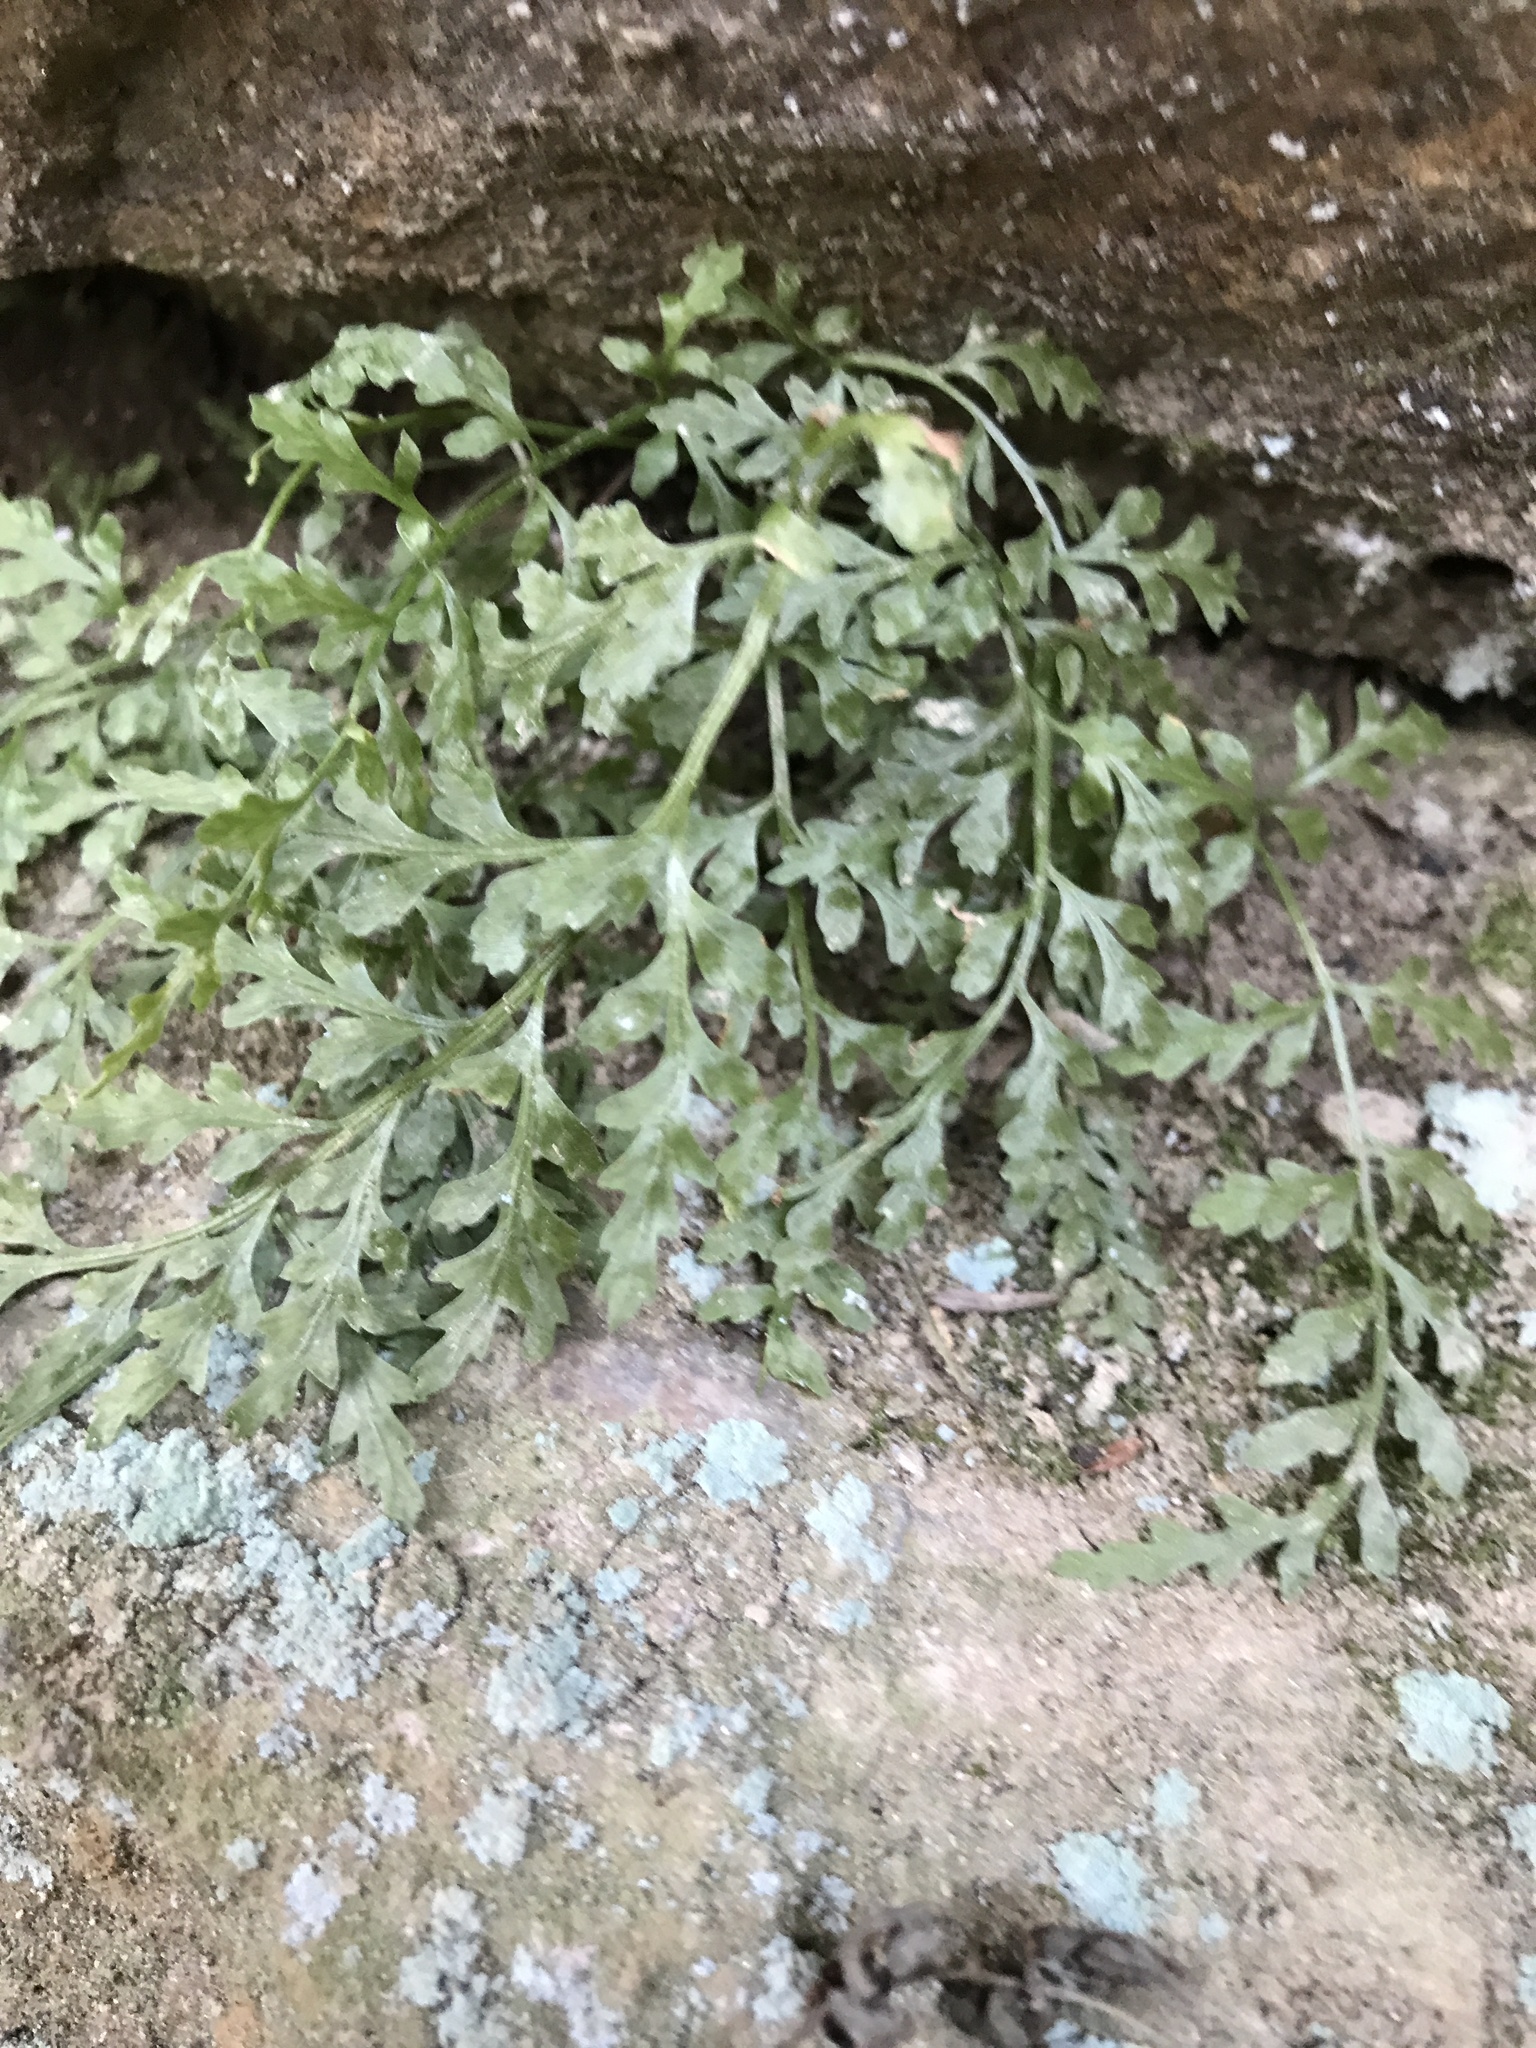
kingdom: Plantae
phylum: Tracheophyta
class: Polypodiopsida
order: Polypodiales
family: Aspleniaceae
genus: Asplenium
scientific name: Asplenium montanum
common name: Mountain spleenwort
